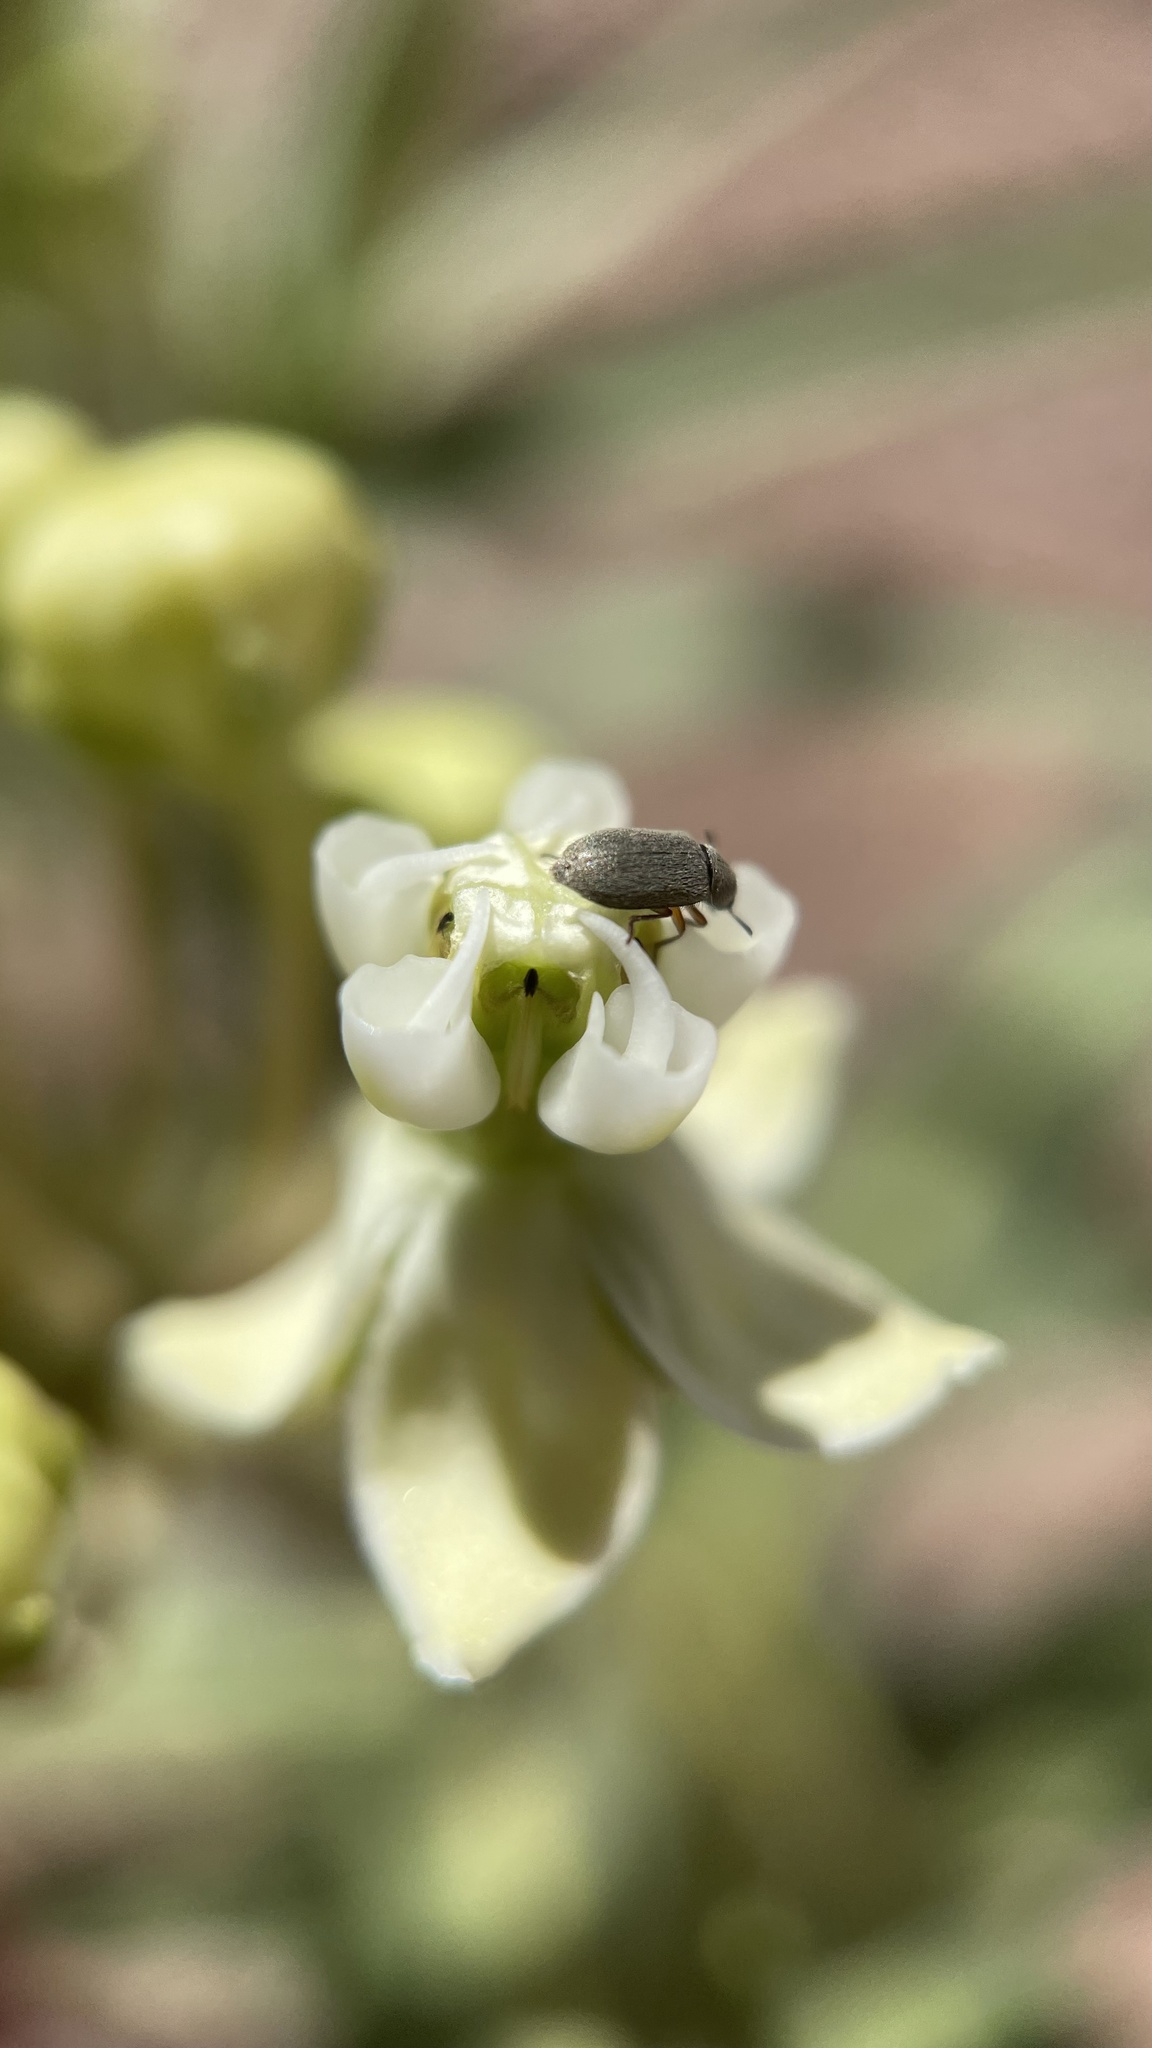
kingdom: Plantae
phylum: Tracheophyta
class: Magnoliopsida
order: Gentianales
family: Apocynaceae
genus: Asclepias
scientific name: Asclepias labriformis
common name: Labriformis milkweed
